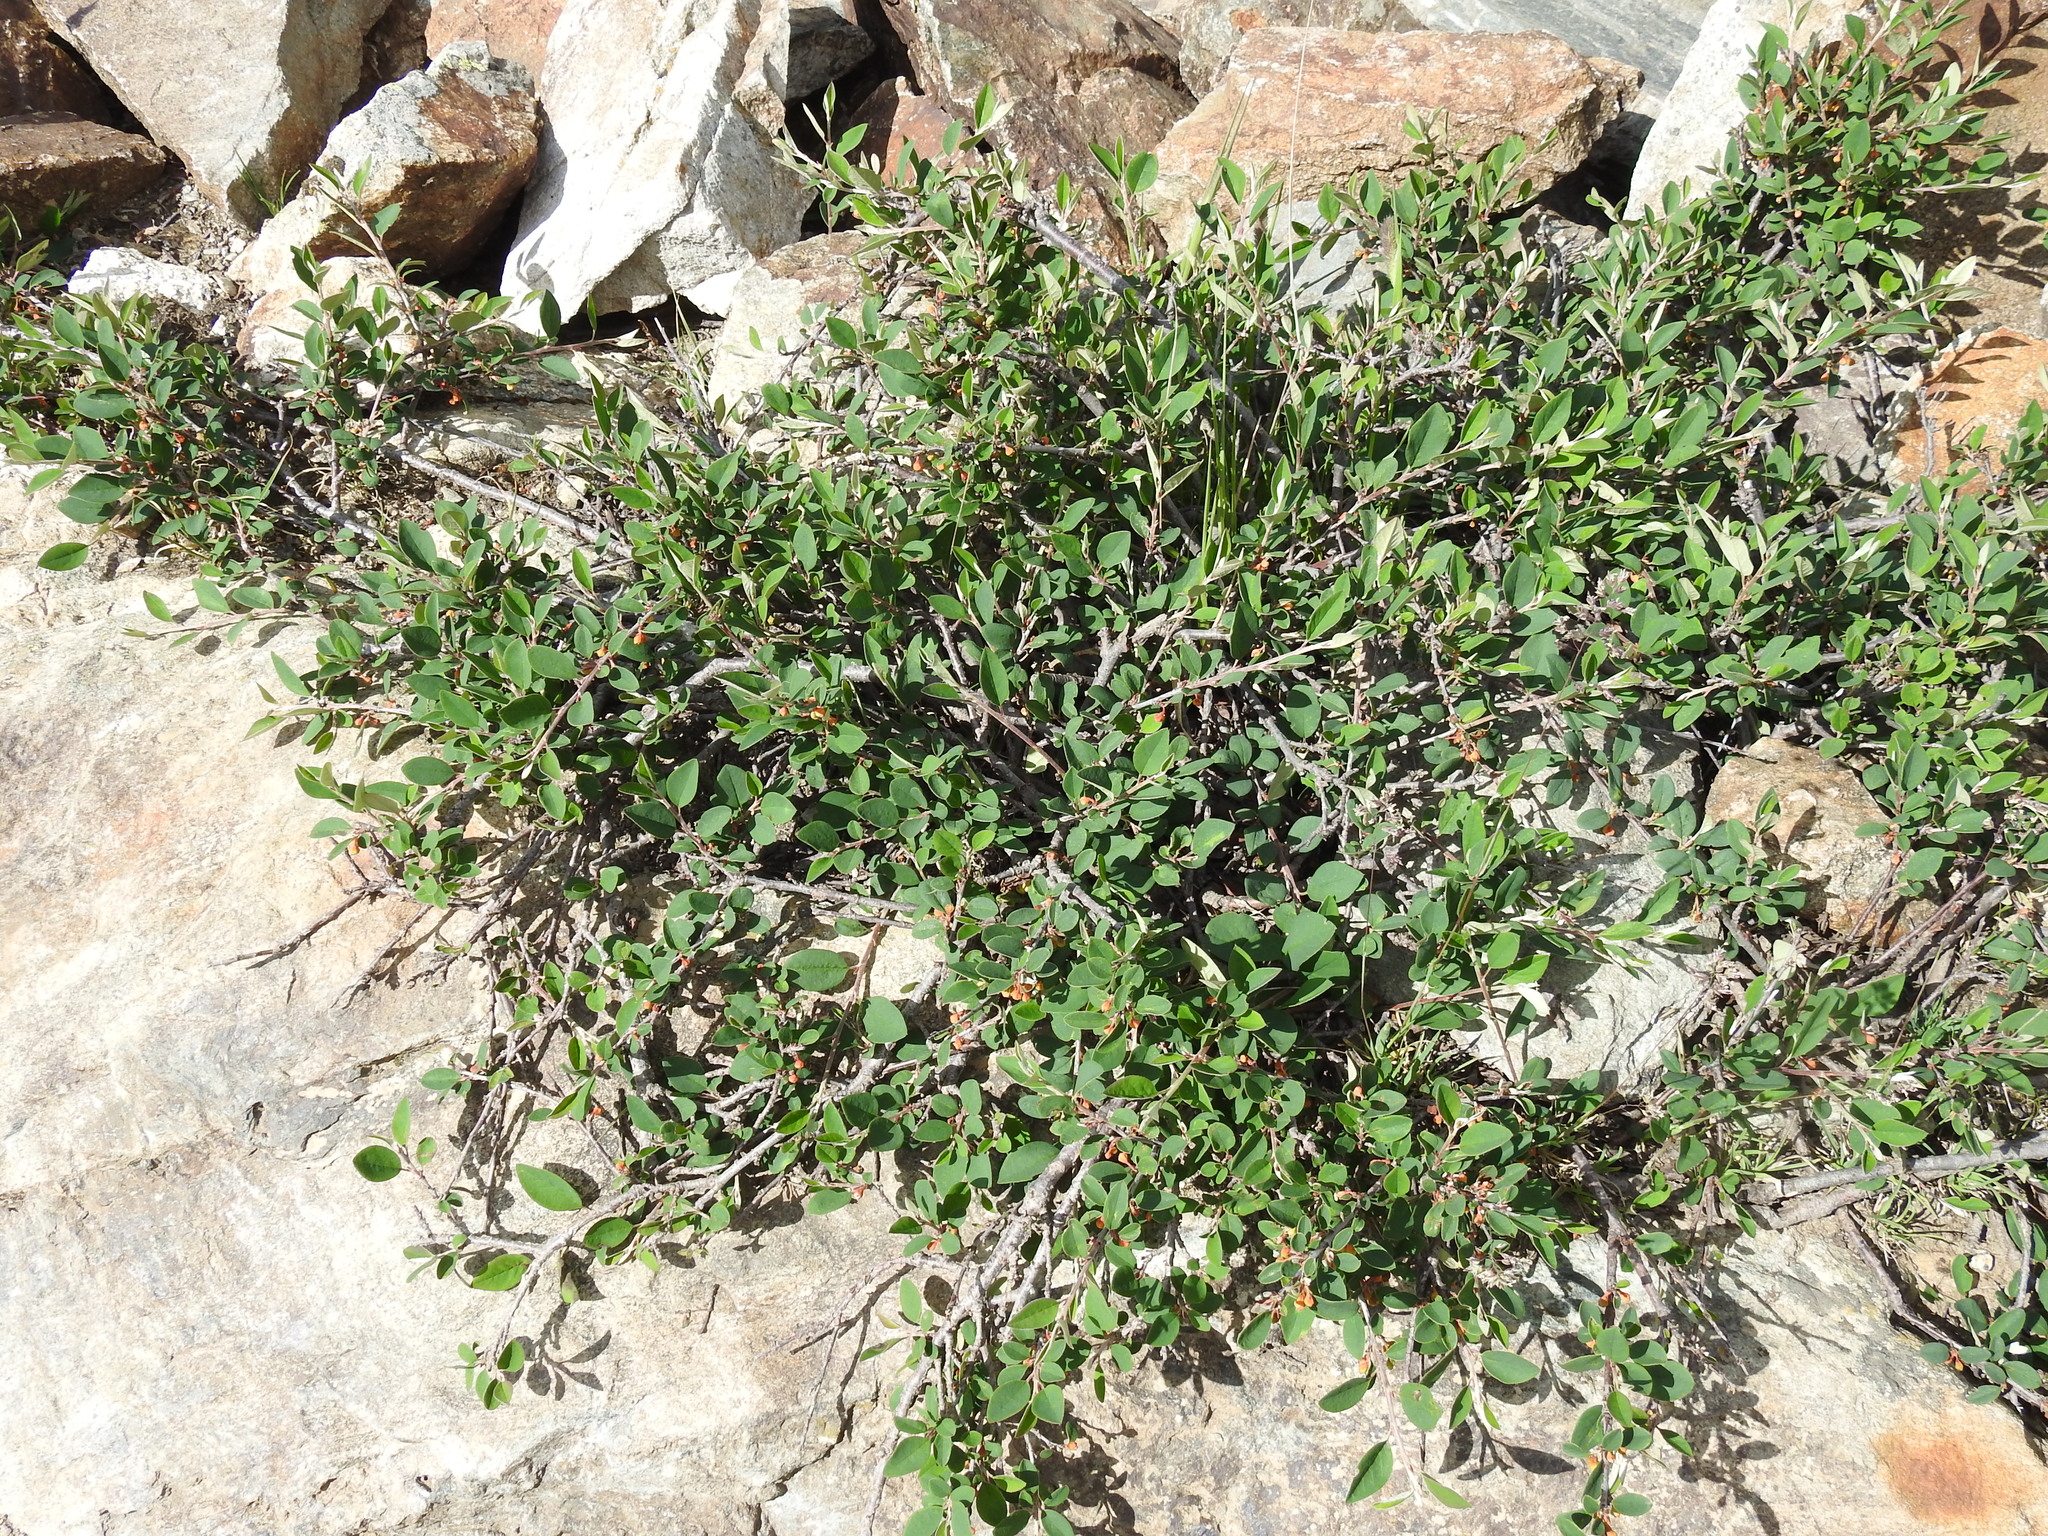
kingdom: Plantae
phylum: Tracheophyta
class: Magnoliopsida
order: Rosales
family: Rosaceae
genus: Cotoneaster
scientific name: Cotoneaster integerrimus
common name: Wild cotoneaster
